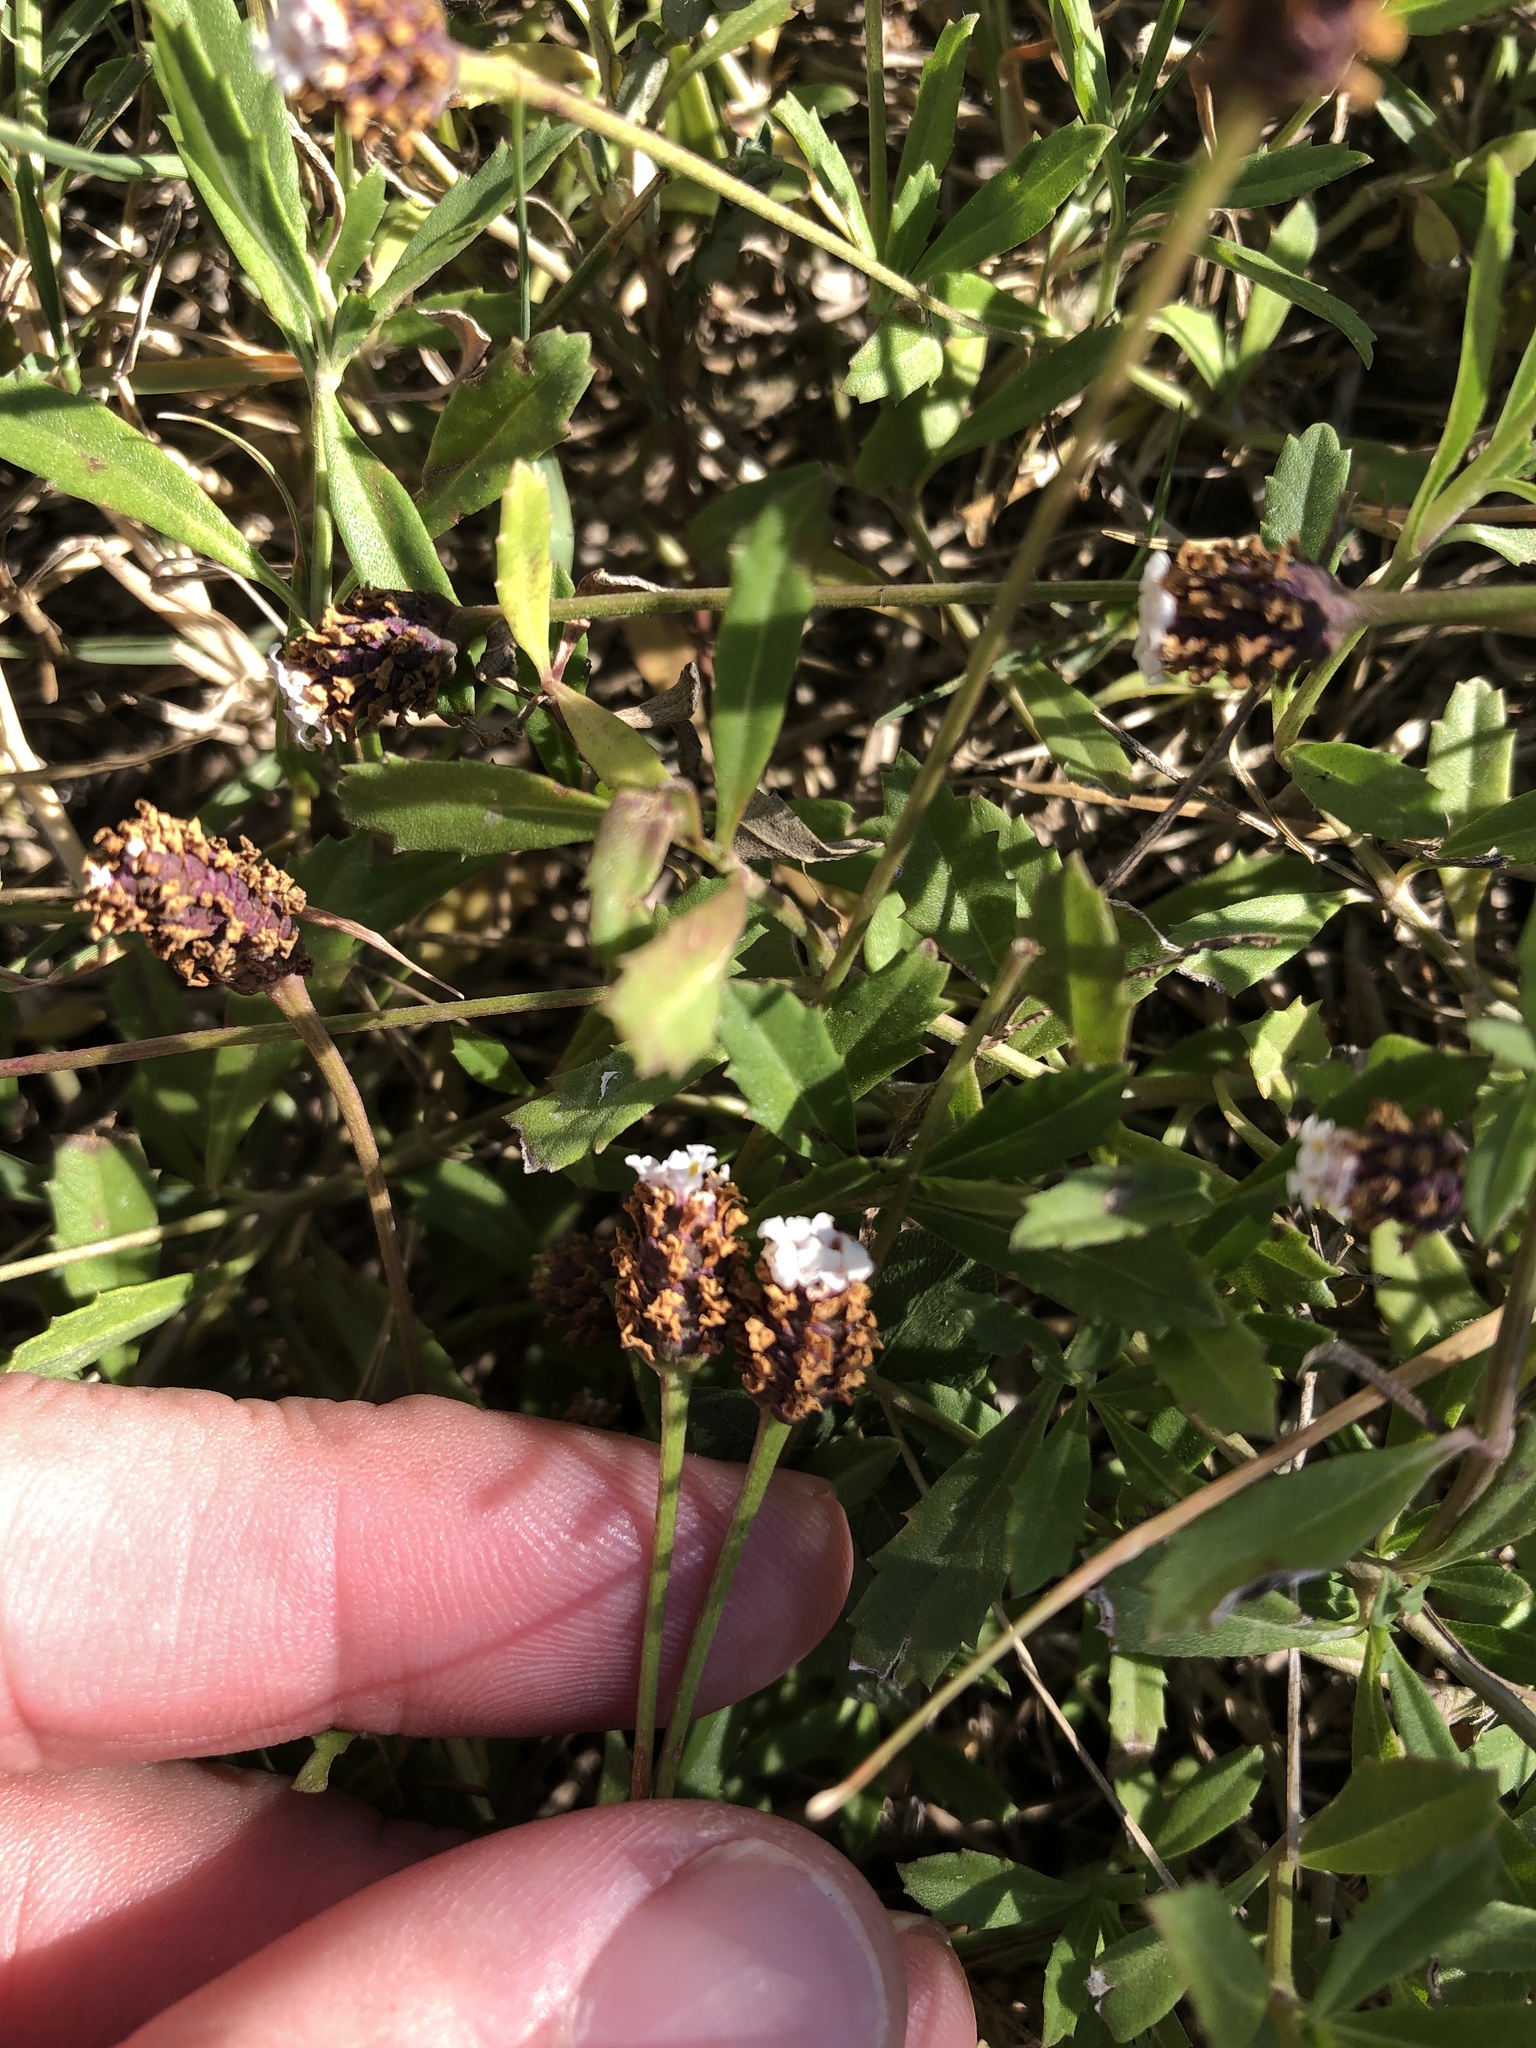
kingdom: Plantae
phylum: Tracheophyta
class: Magnoliopsida
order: Lamiales
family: Verbenaceae
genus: Phyla
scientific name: Phyla nodiflora
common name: Frogfruit
